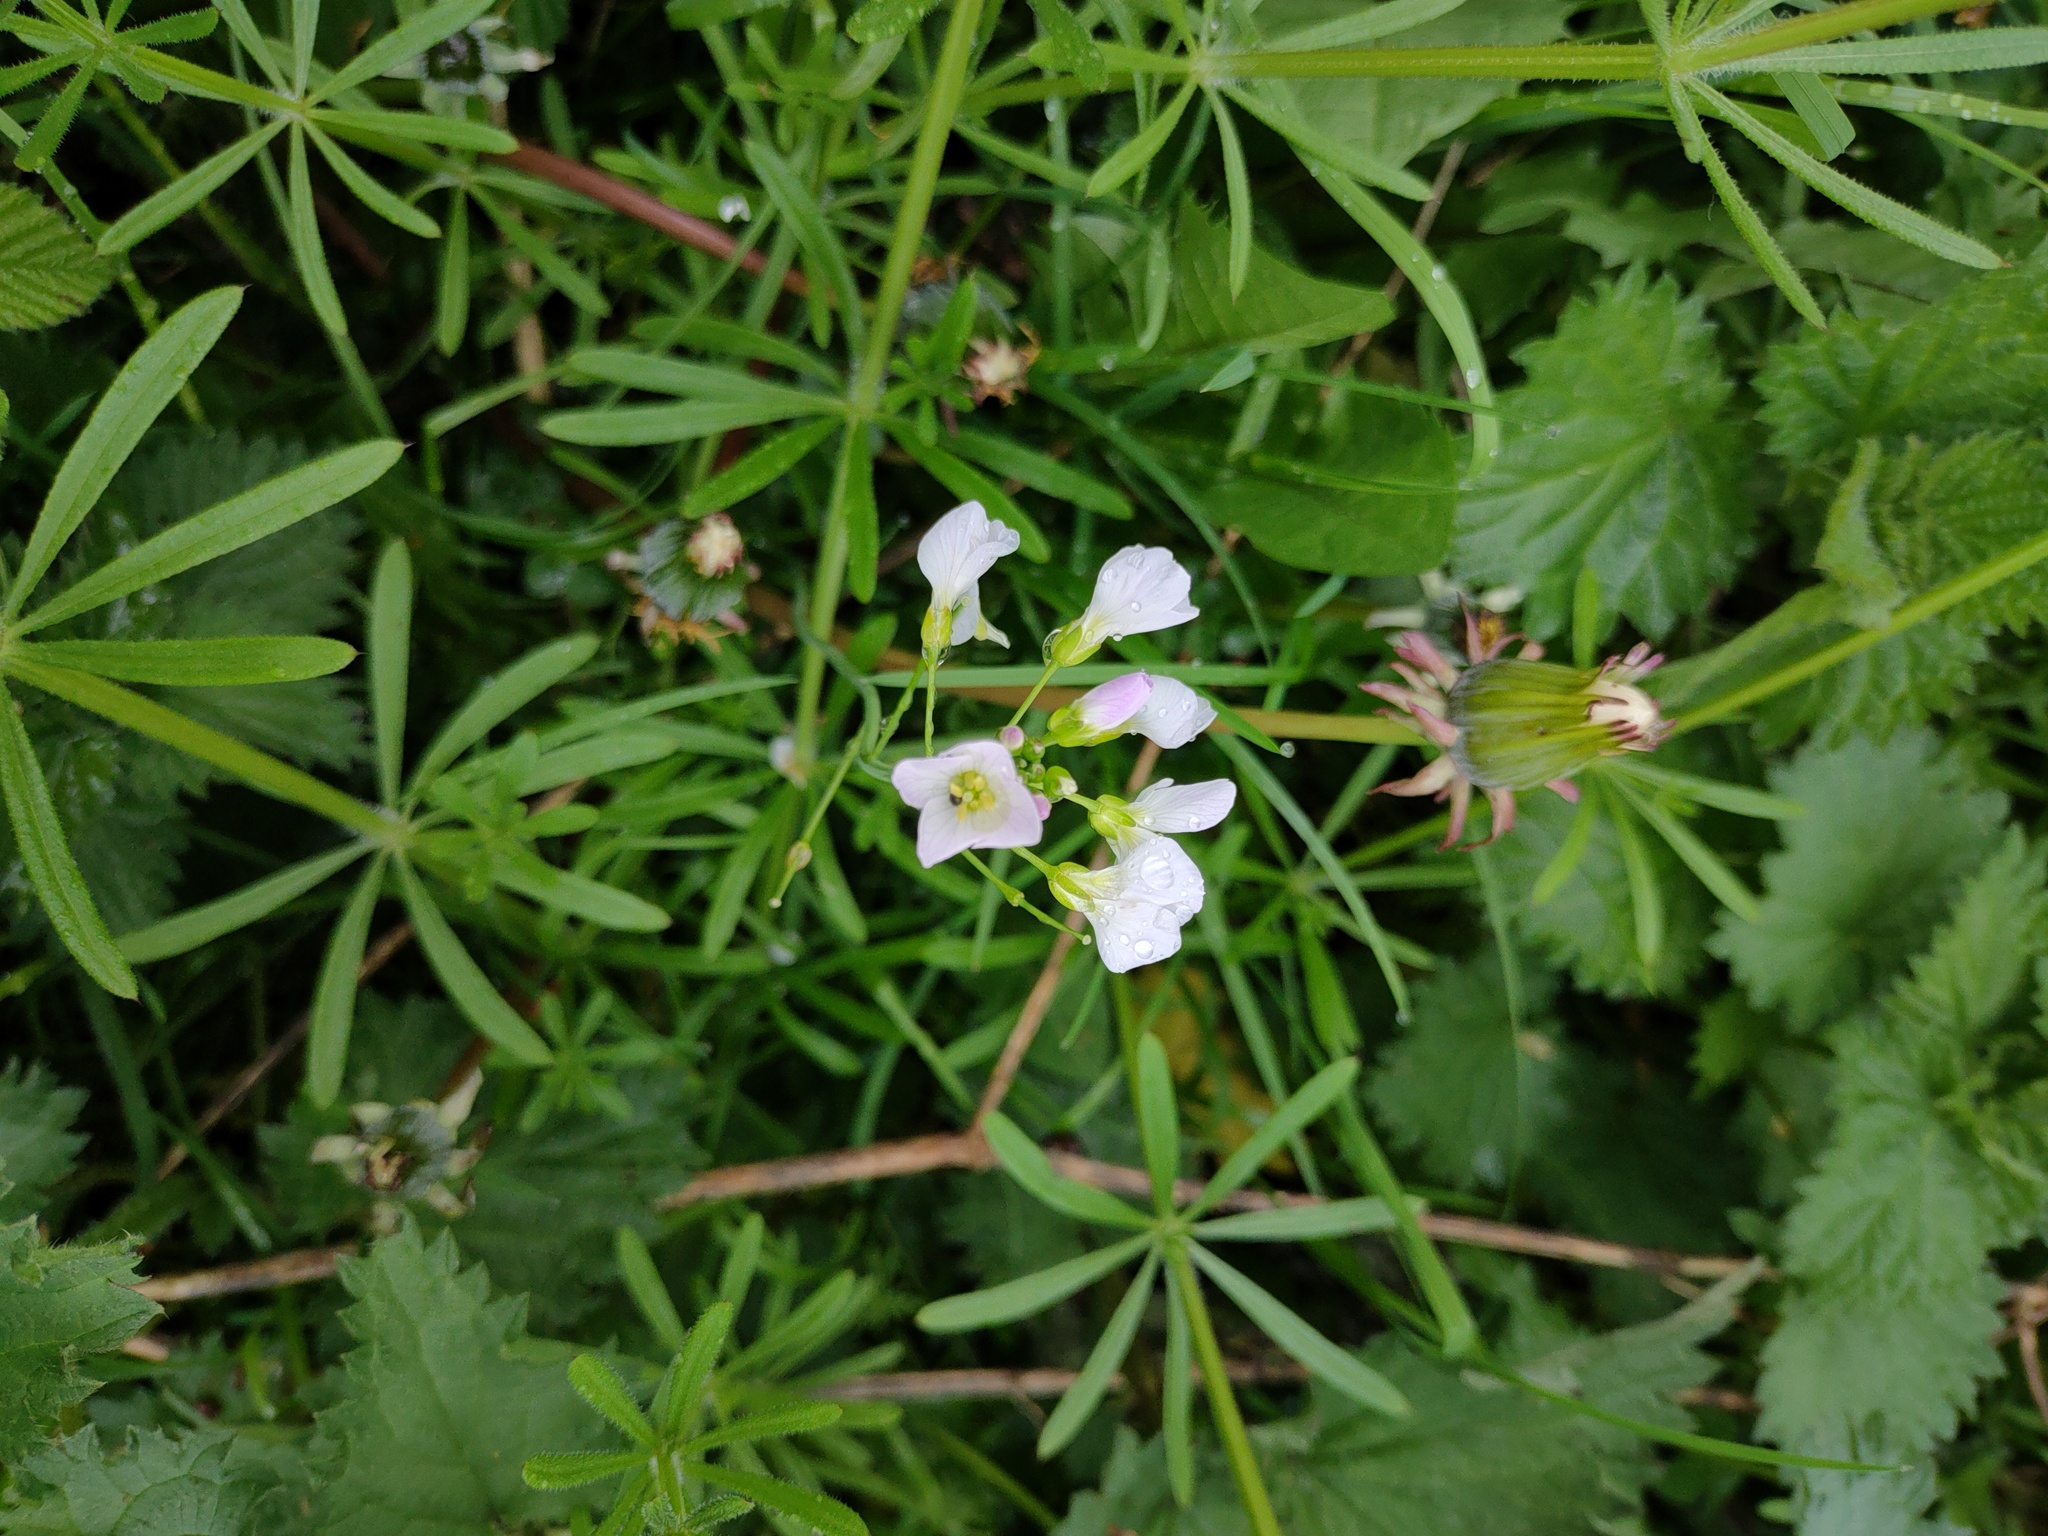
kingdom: Plantae
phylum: Tracheophyta
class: Magnoliopsida
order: Brassicales
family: Brassicaceae
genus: Cardamine
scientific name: Cardamine pratensis
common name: Cuckoo flower
